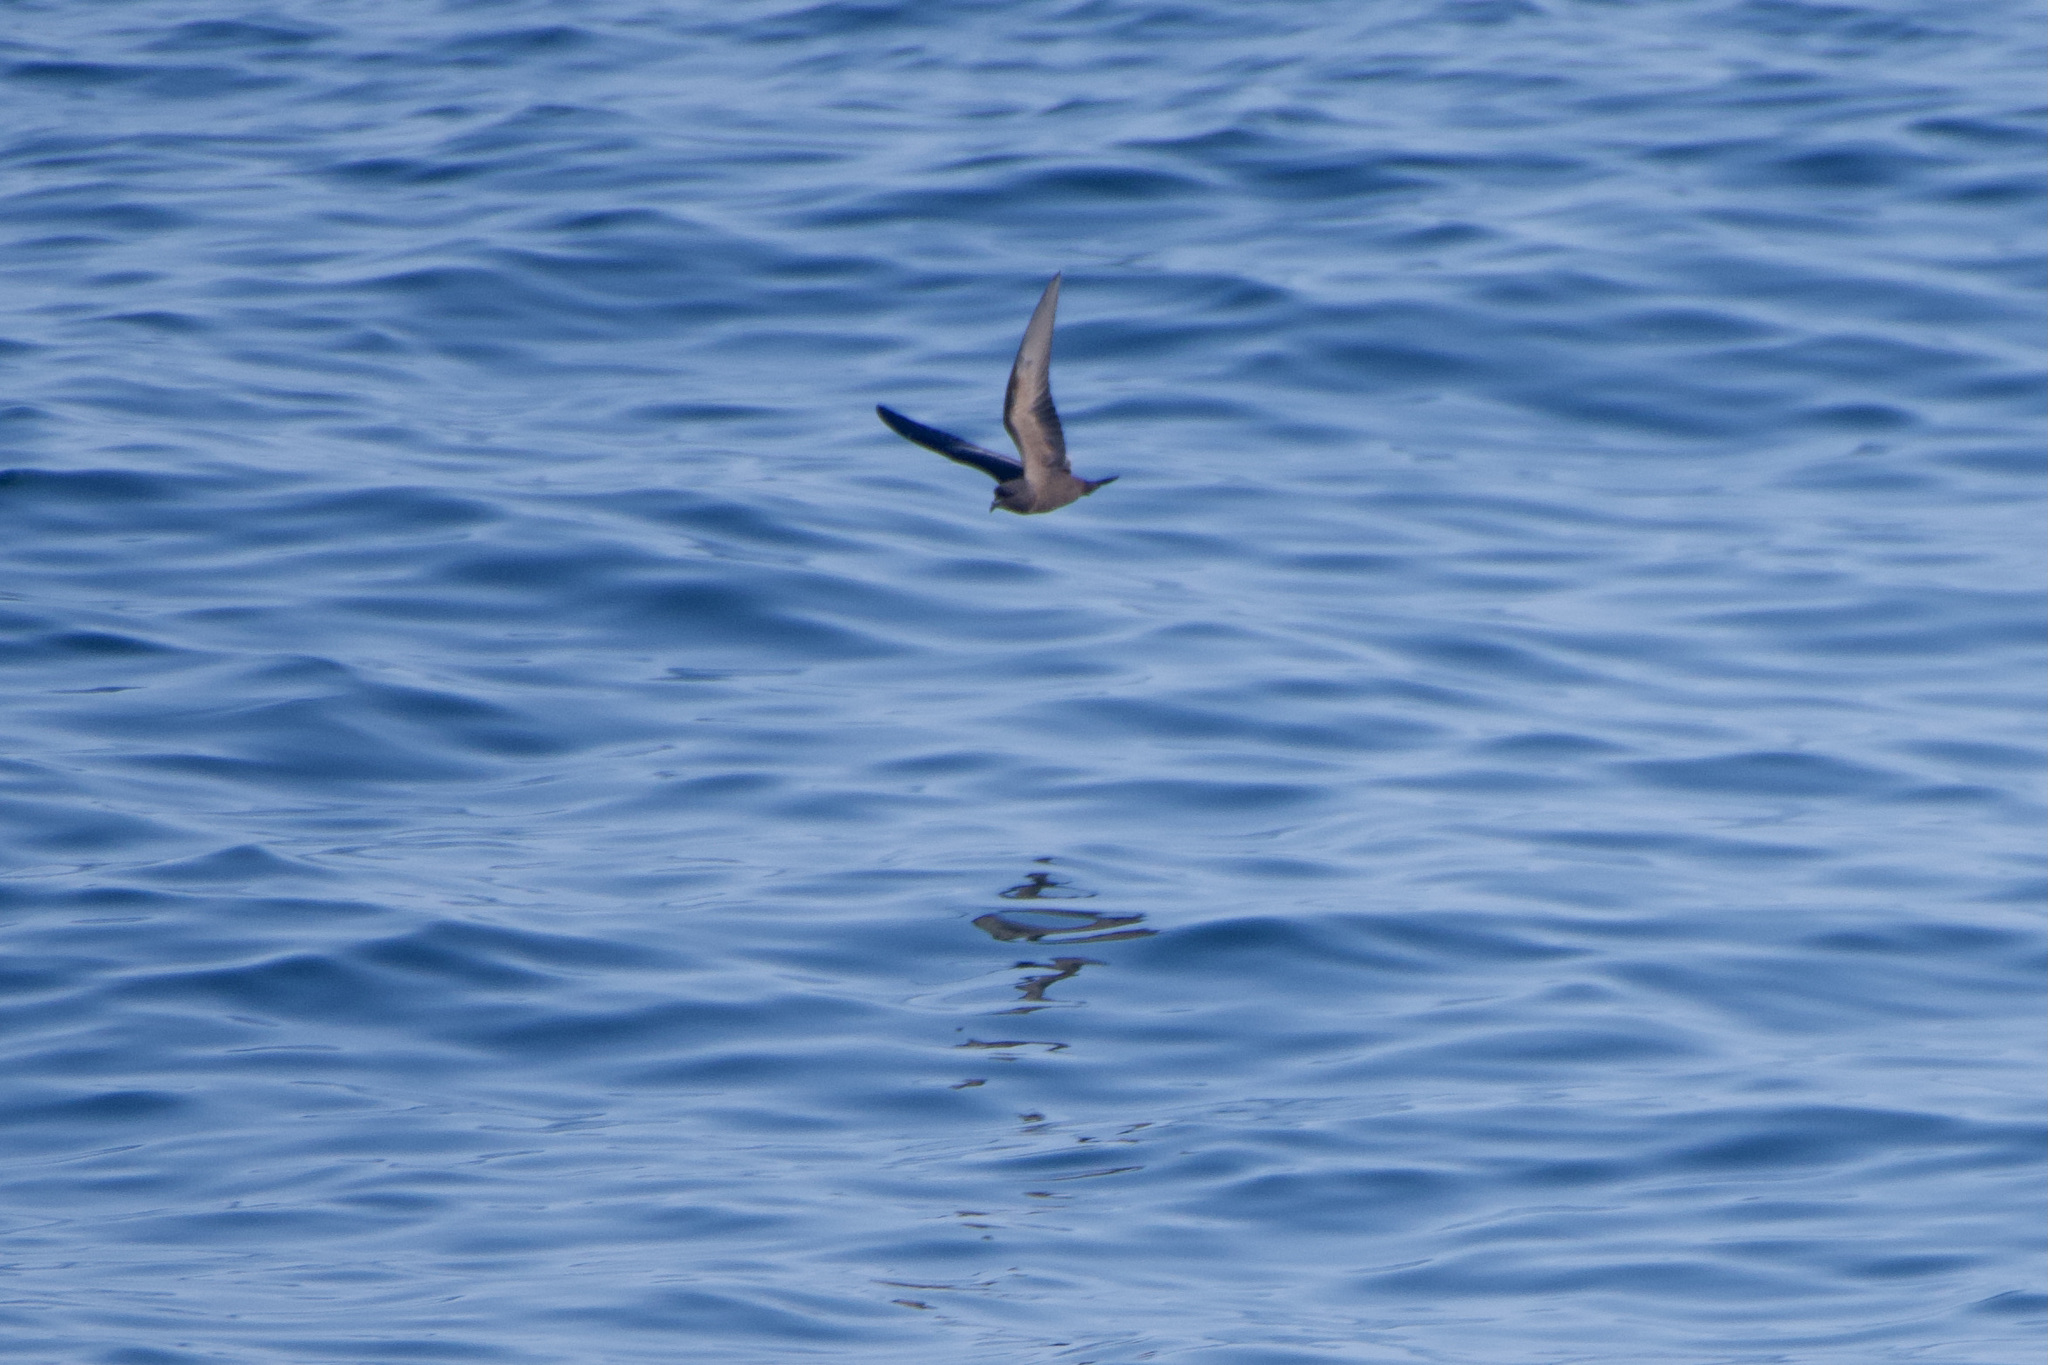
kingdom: Animalia
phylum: Chordata
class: Aves
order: Procellariiformes
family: Hydrobatidae
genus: Hydrobates
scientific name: Hydrobates melania
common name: Black storm petrel
